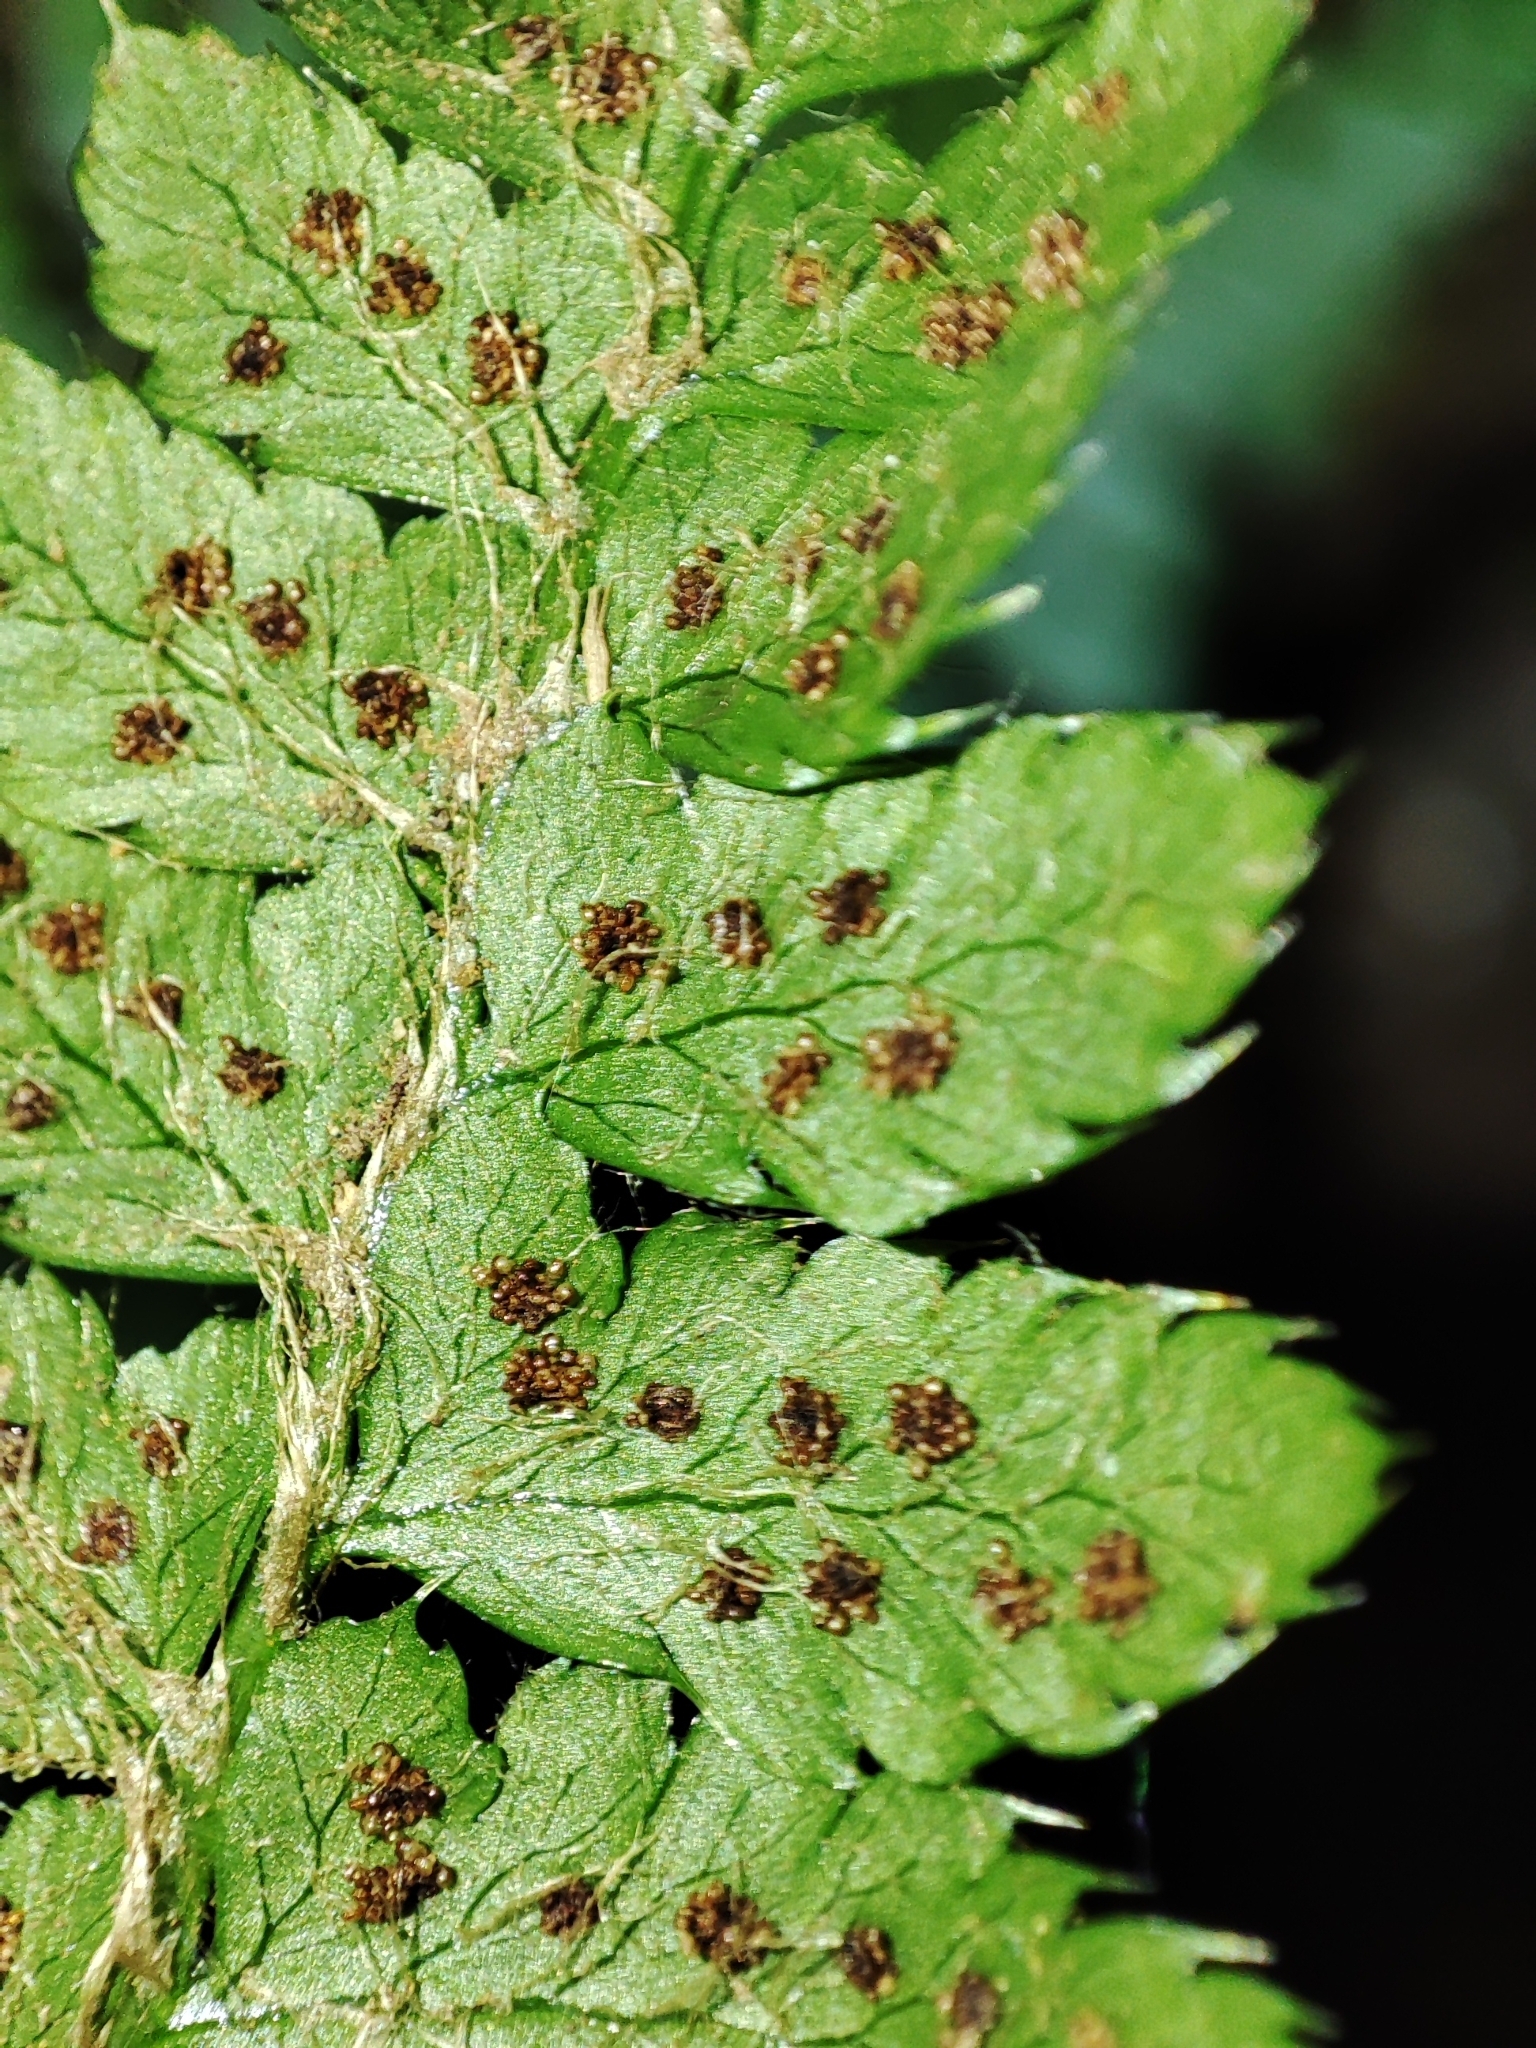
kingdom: Plantae
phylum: Tracheophyta
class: Polypodiopsida
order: Polypodiales
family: Dryopteridaceae
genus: Polystichum
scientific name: Polystichum braunii
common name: Braun's holly fern
